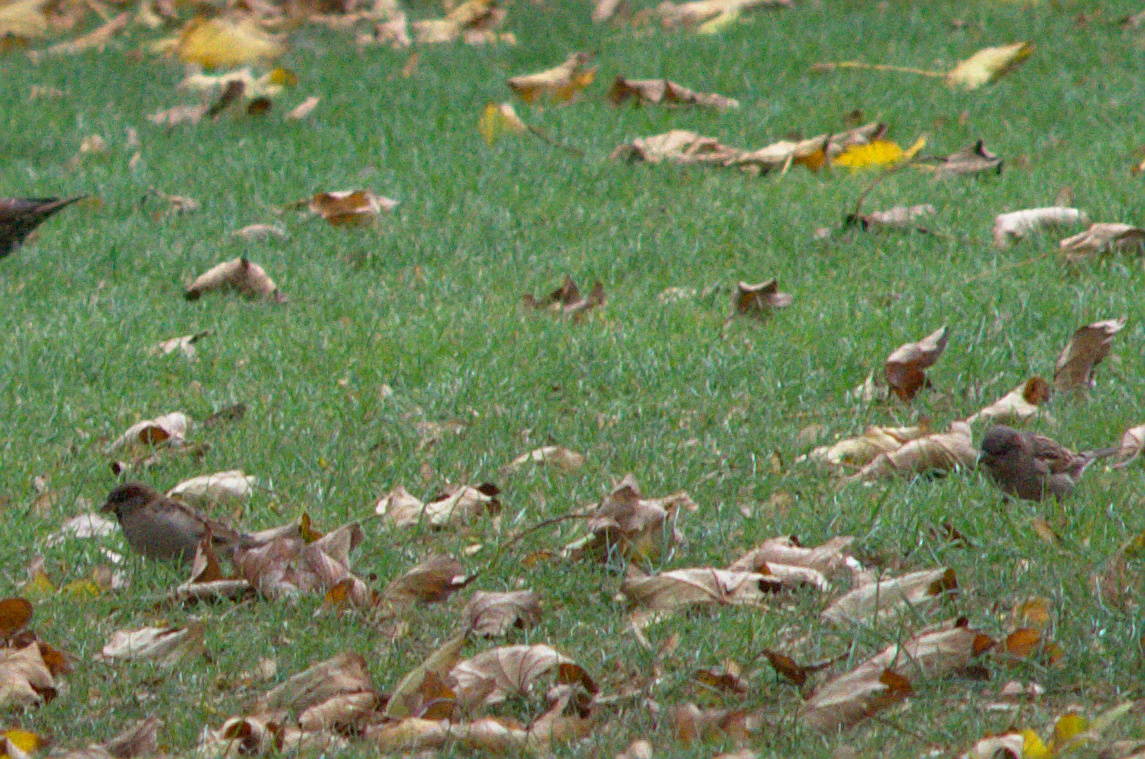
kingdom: Animalia
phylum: Chordata
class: Aves
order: Passeriformes
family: Passeridae
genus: Passer
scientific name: Passer domesticus
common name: House sparrow
